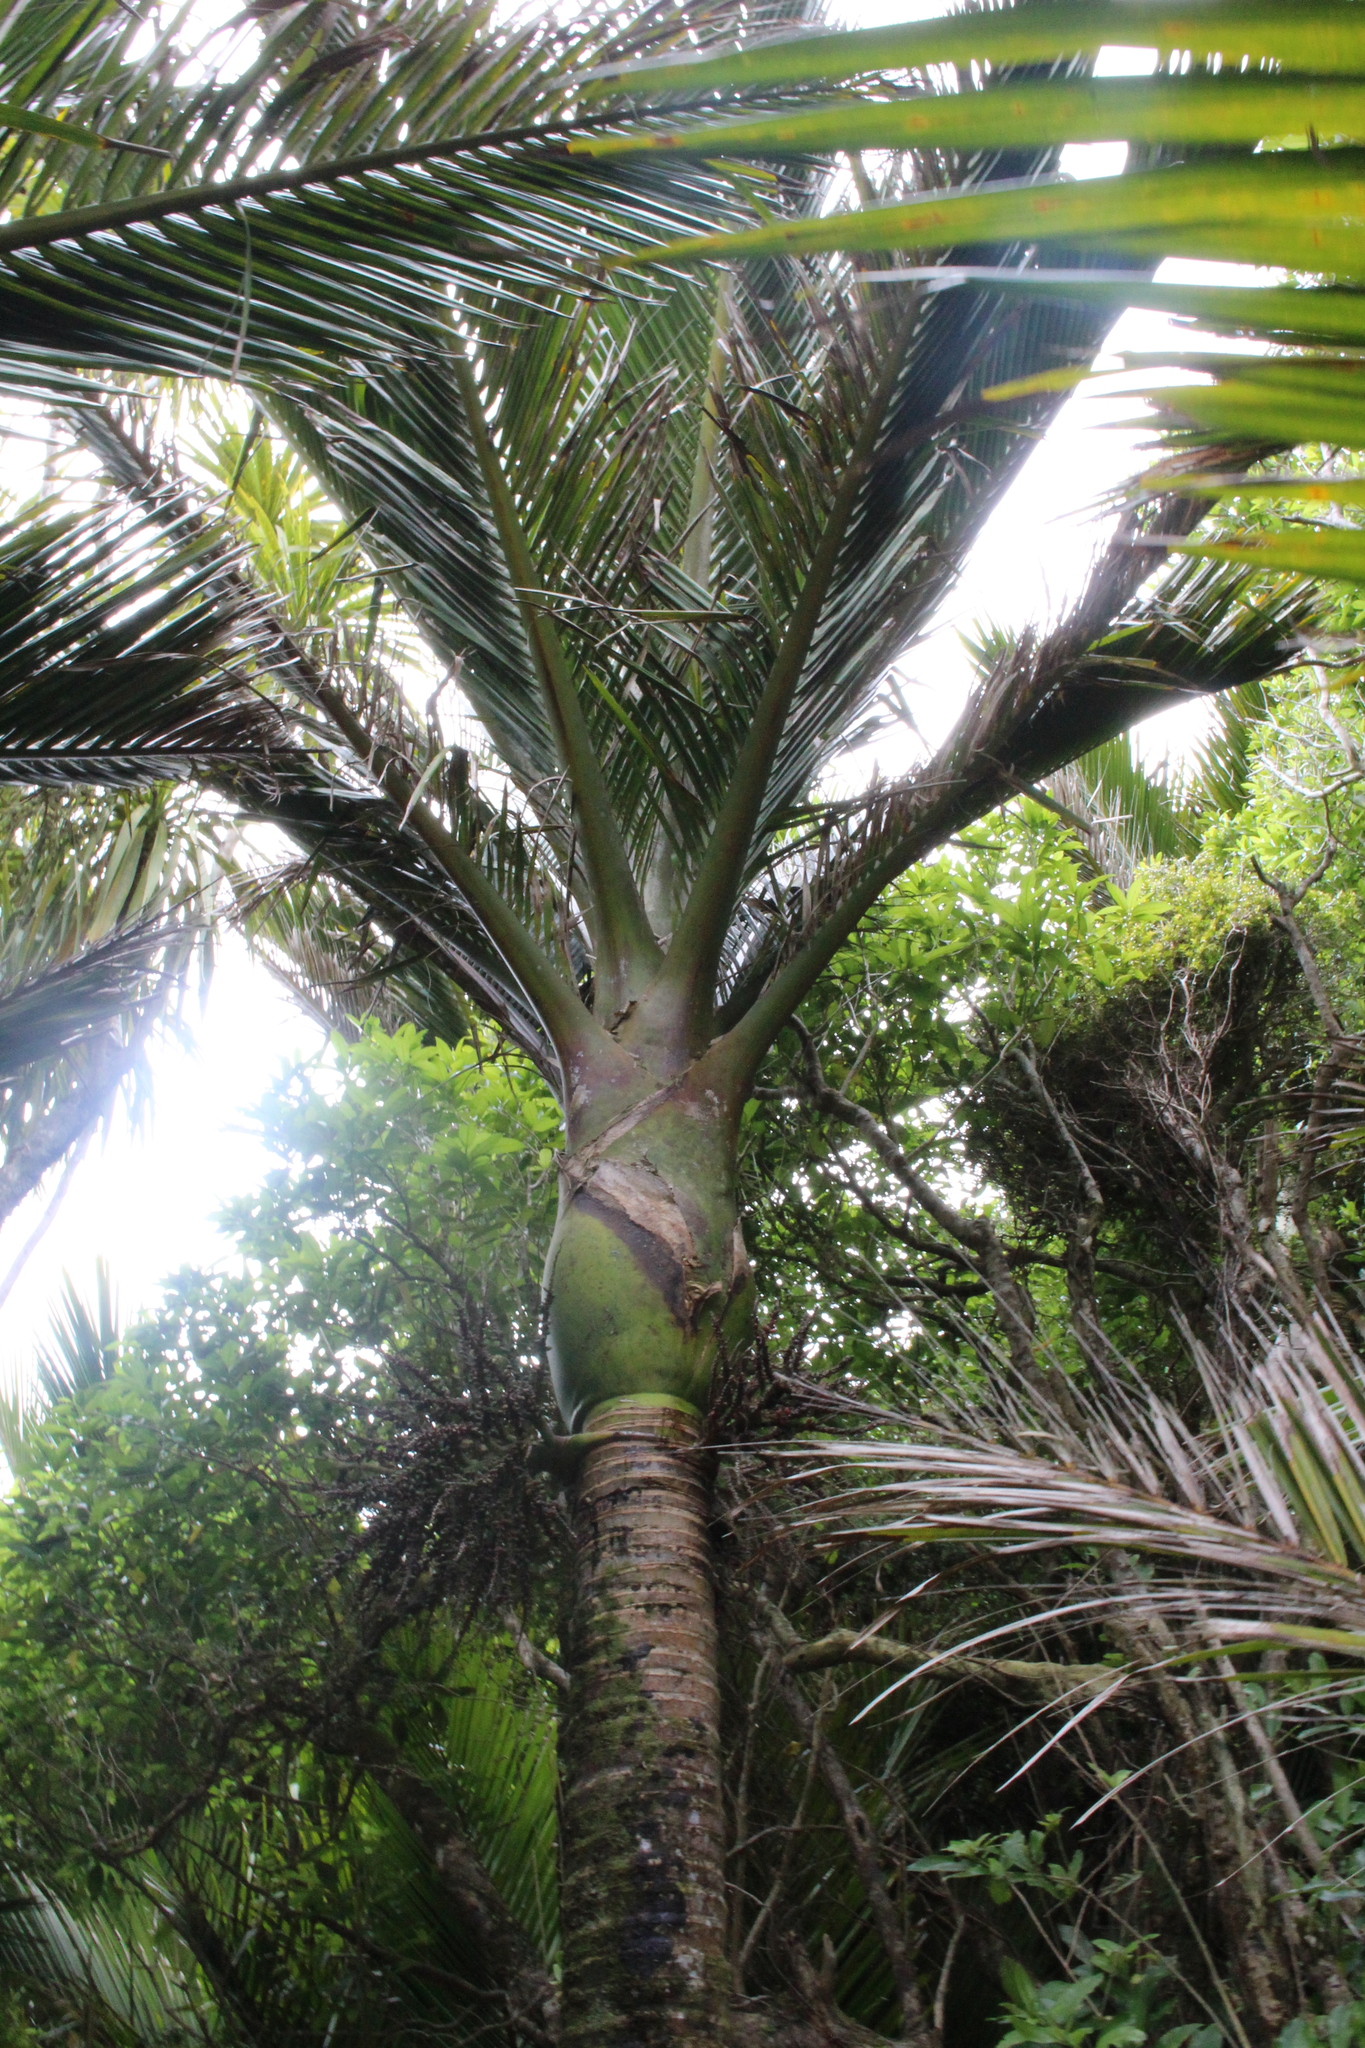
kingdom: Plantae
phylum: Tracheophyta
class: Liliopsida
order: Arecales
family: Arecaceae
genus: Rhopalostylis
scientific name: Rhopalostylis sapida
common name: Feather-duster palm
